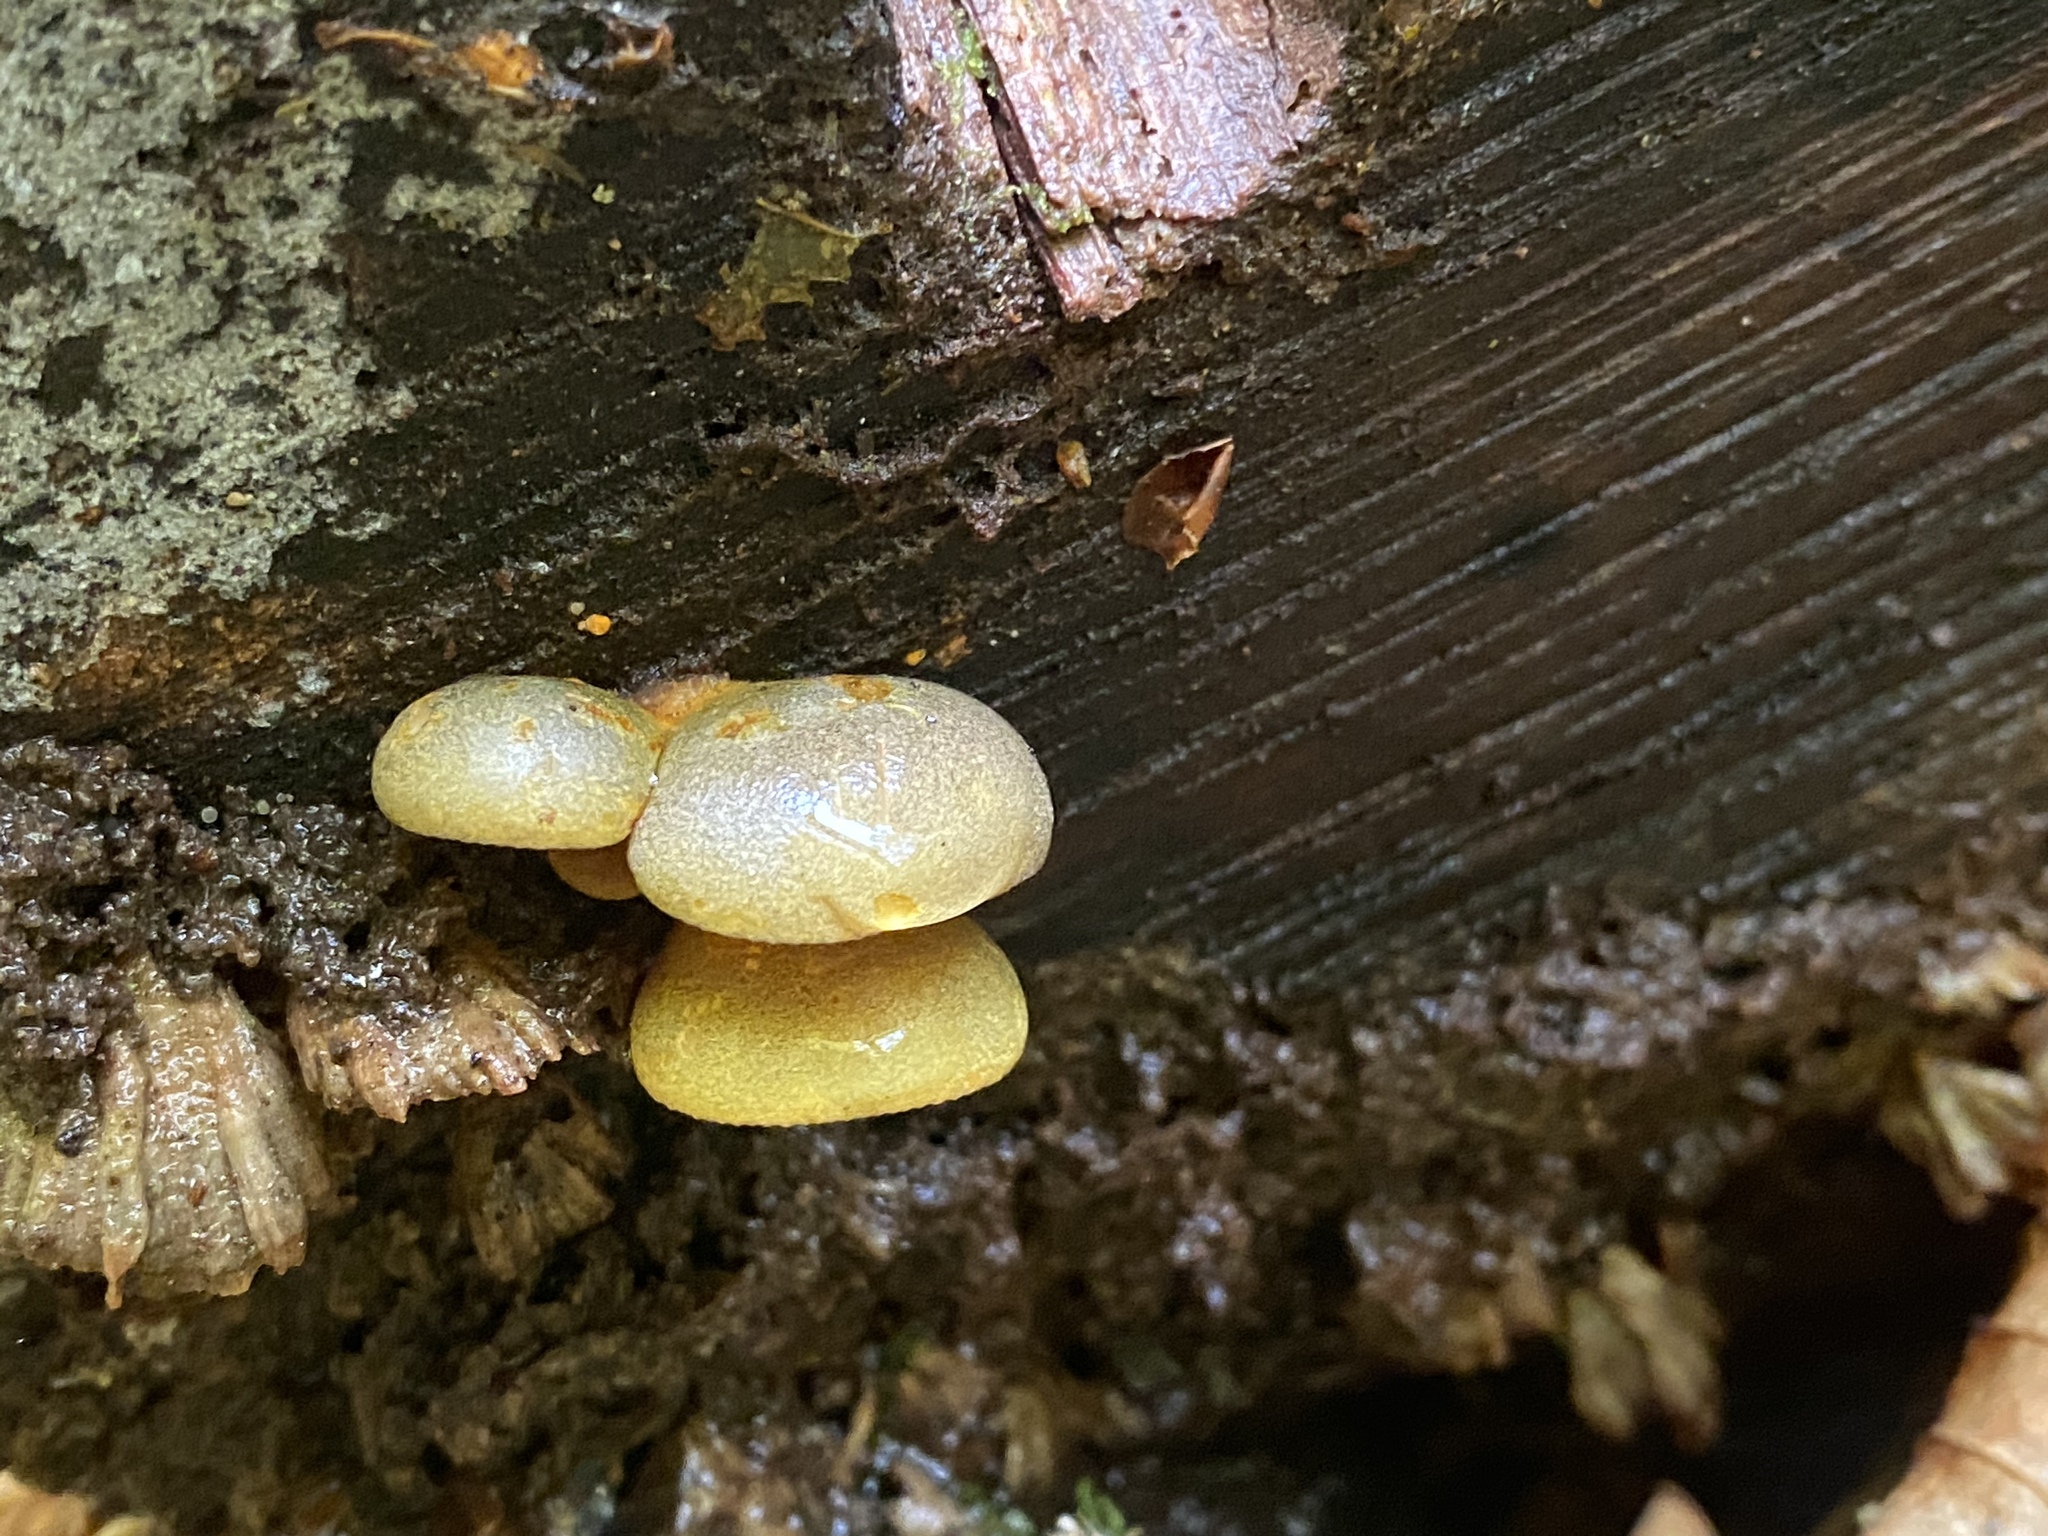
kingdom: Fungi
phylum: Basidiomycota
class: Agaricomycetes
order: Agaricales
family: Sarcomyxaceae
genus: Sarcomyxa
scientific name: Sarcomyxa serotina
